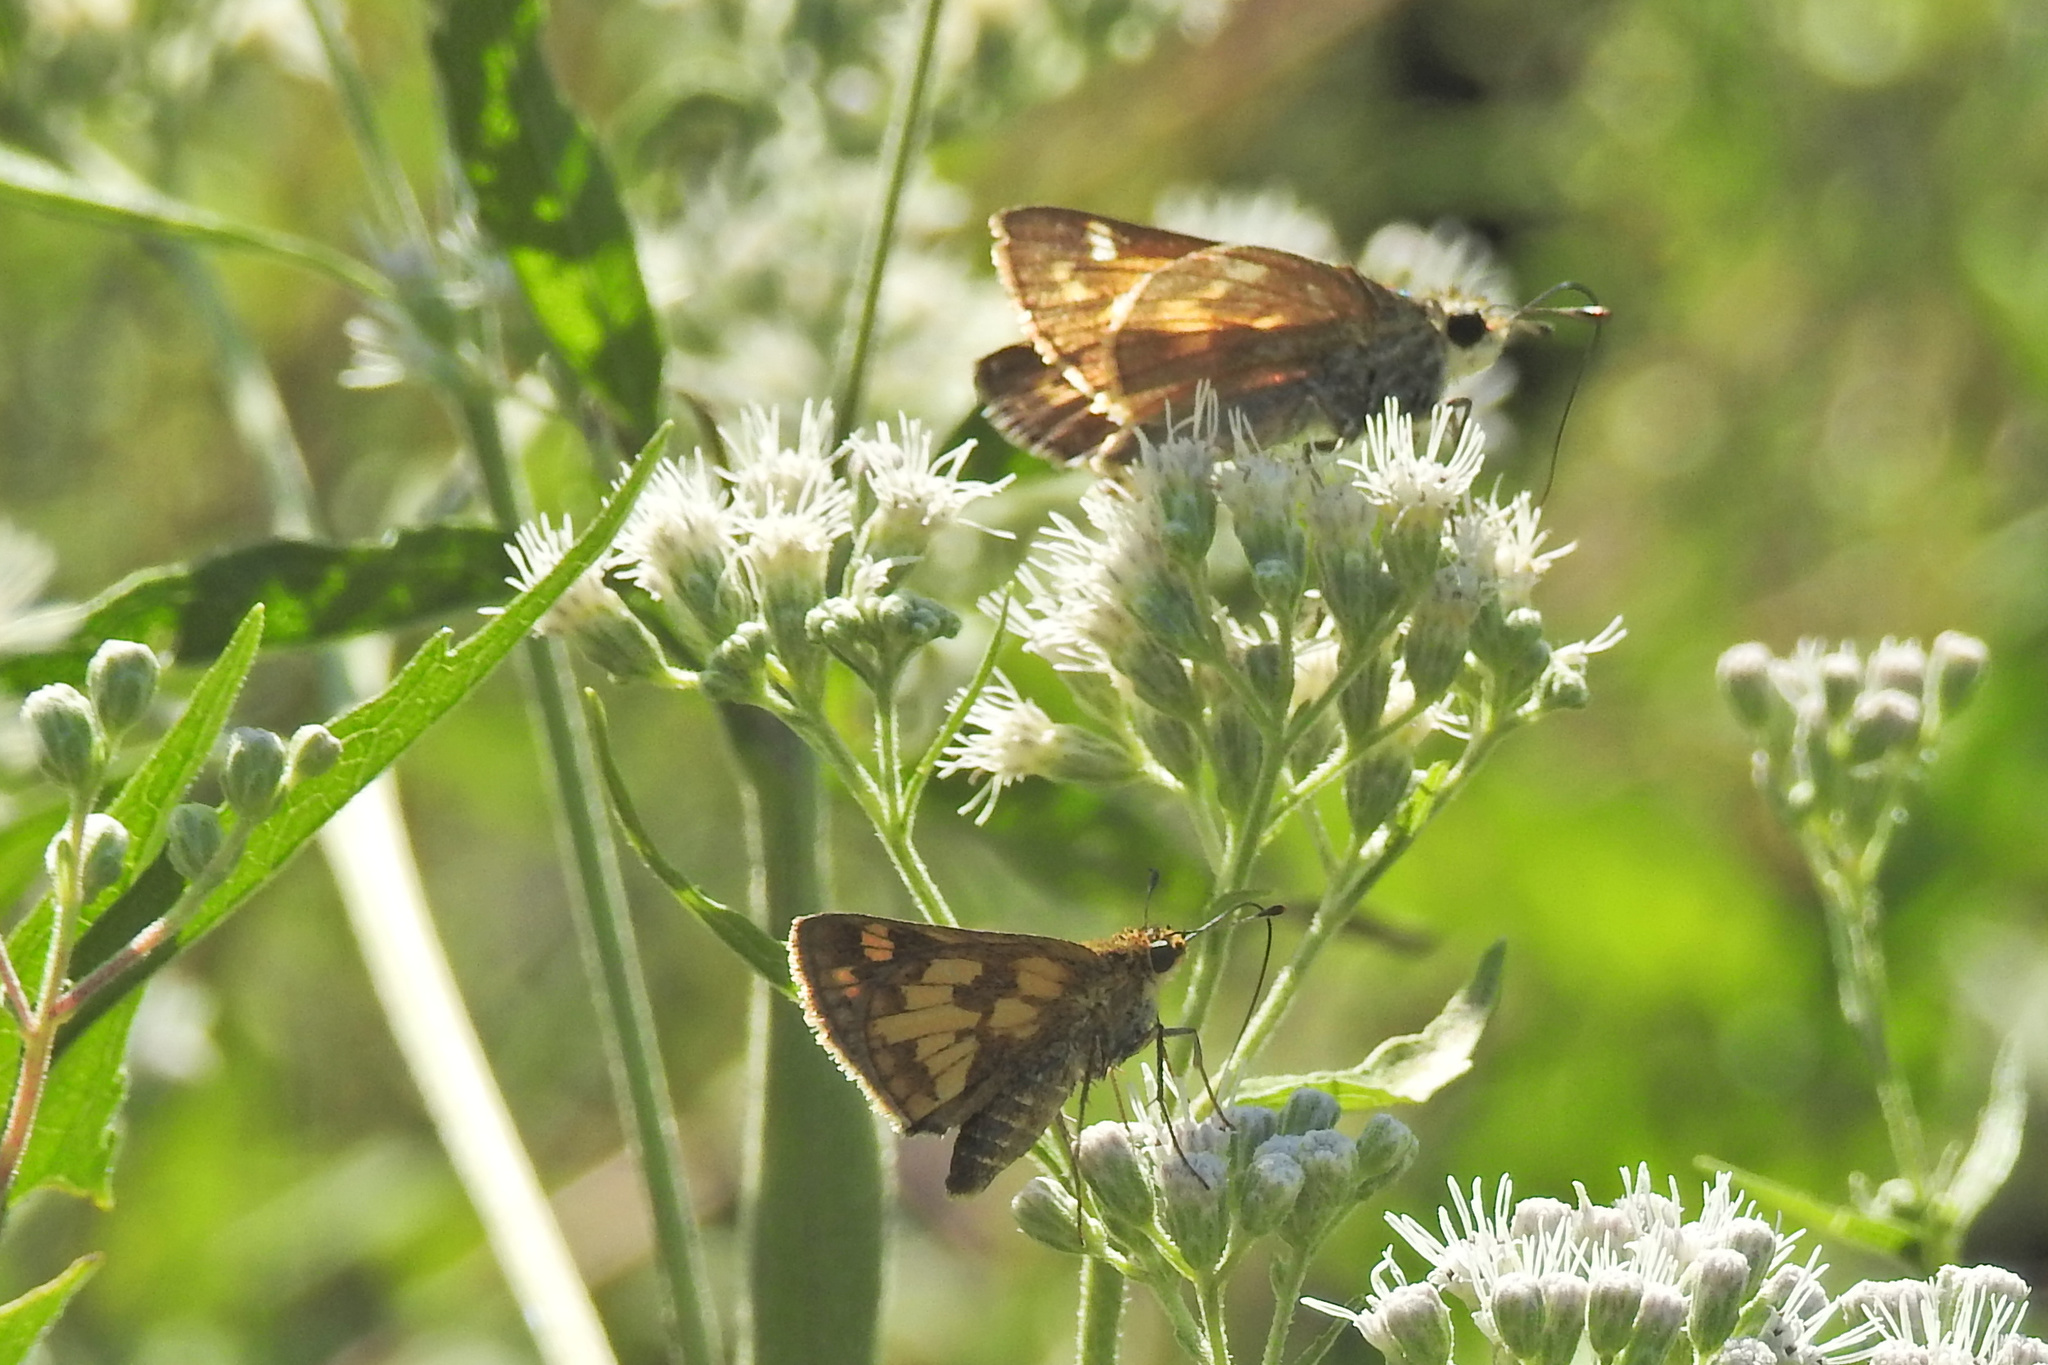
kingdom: Animalia
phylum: Arthropoda
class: Insecta
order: Lepidoptera
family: Hesperiidae
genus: Atalopedes
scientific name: Atalopedes
